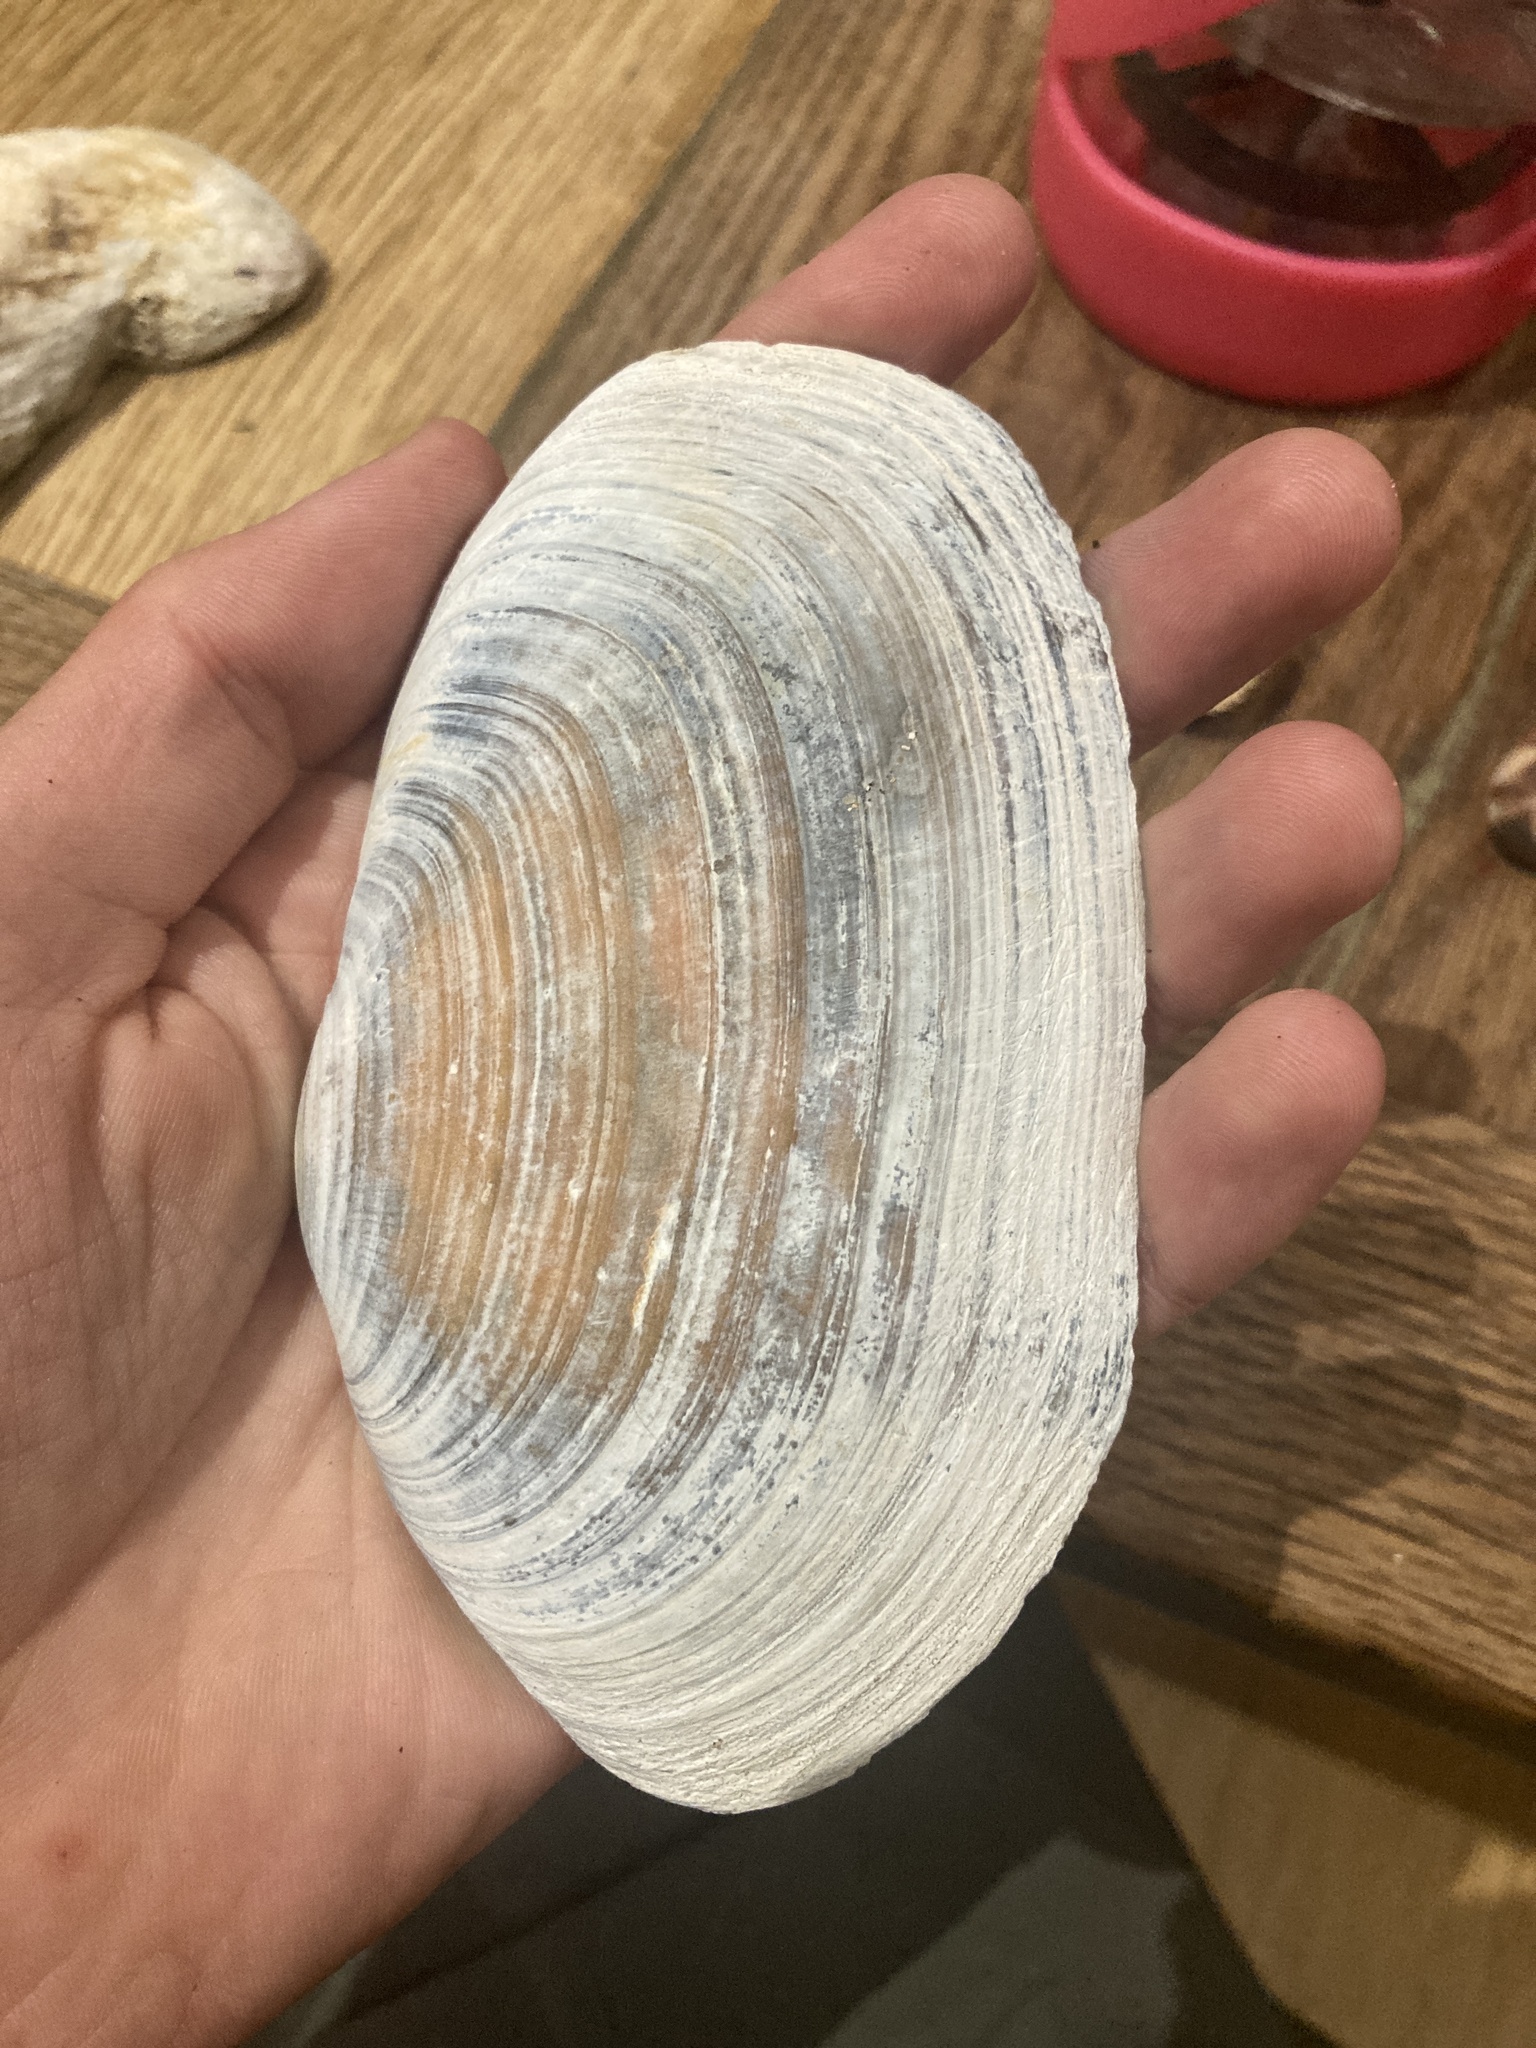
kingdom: Animalia
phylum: Mollusca
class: Bivalvia
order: Venerida
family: Mactridae
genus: Lutraria
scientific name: Lutraria lutraria
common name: Common otter shell
